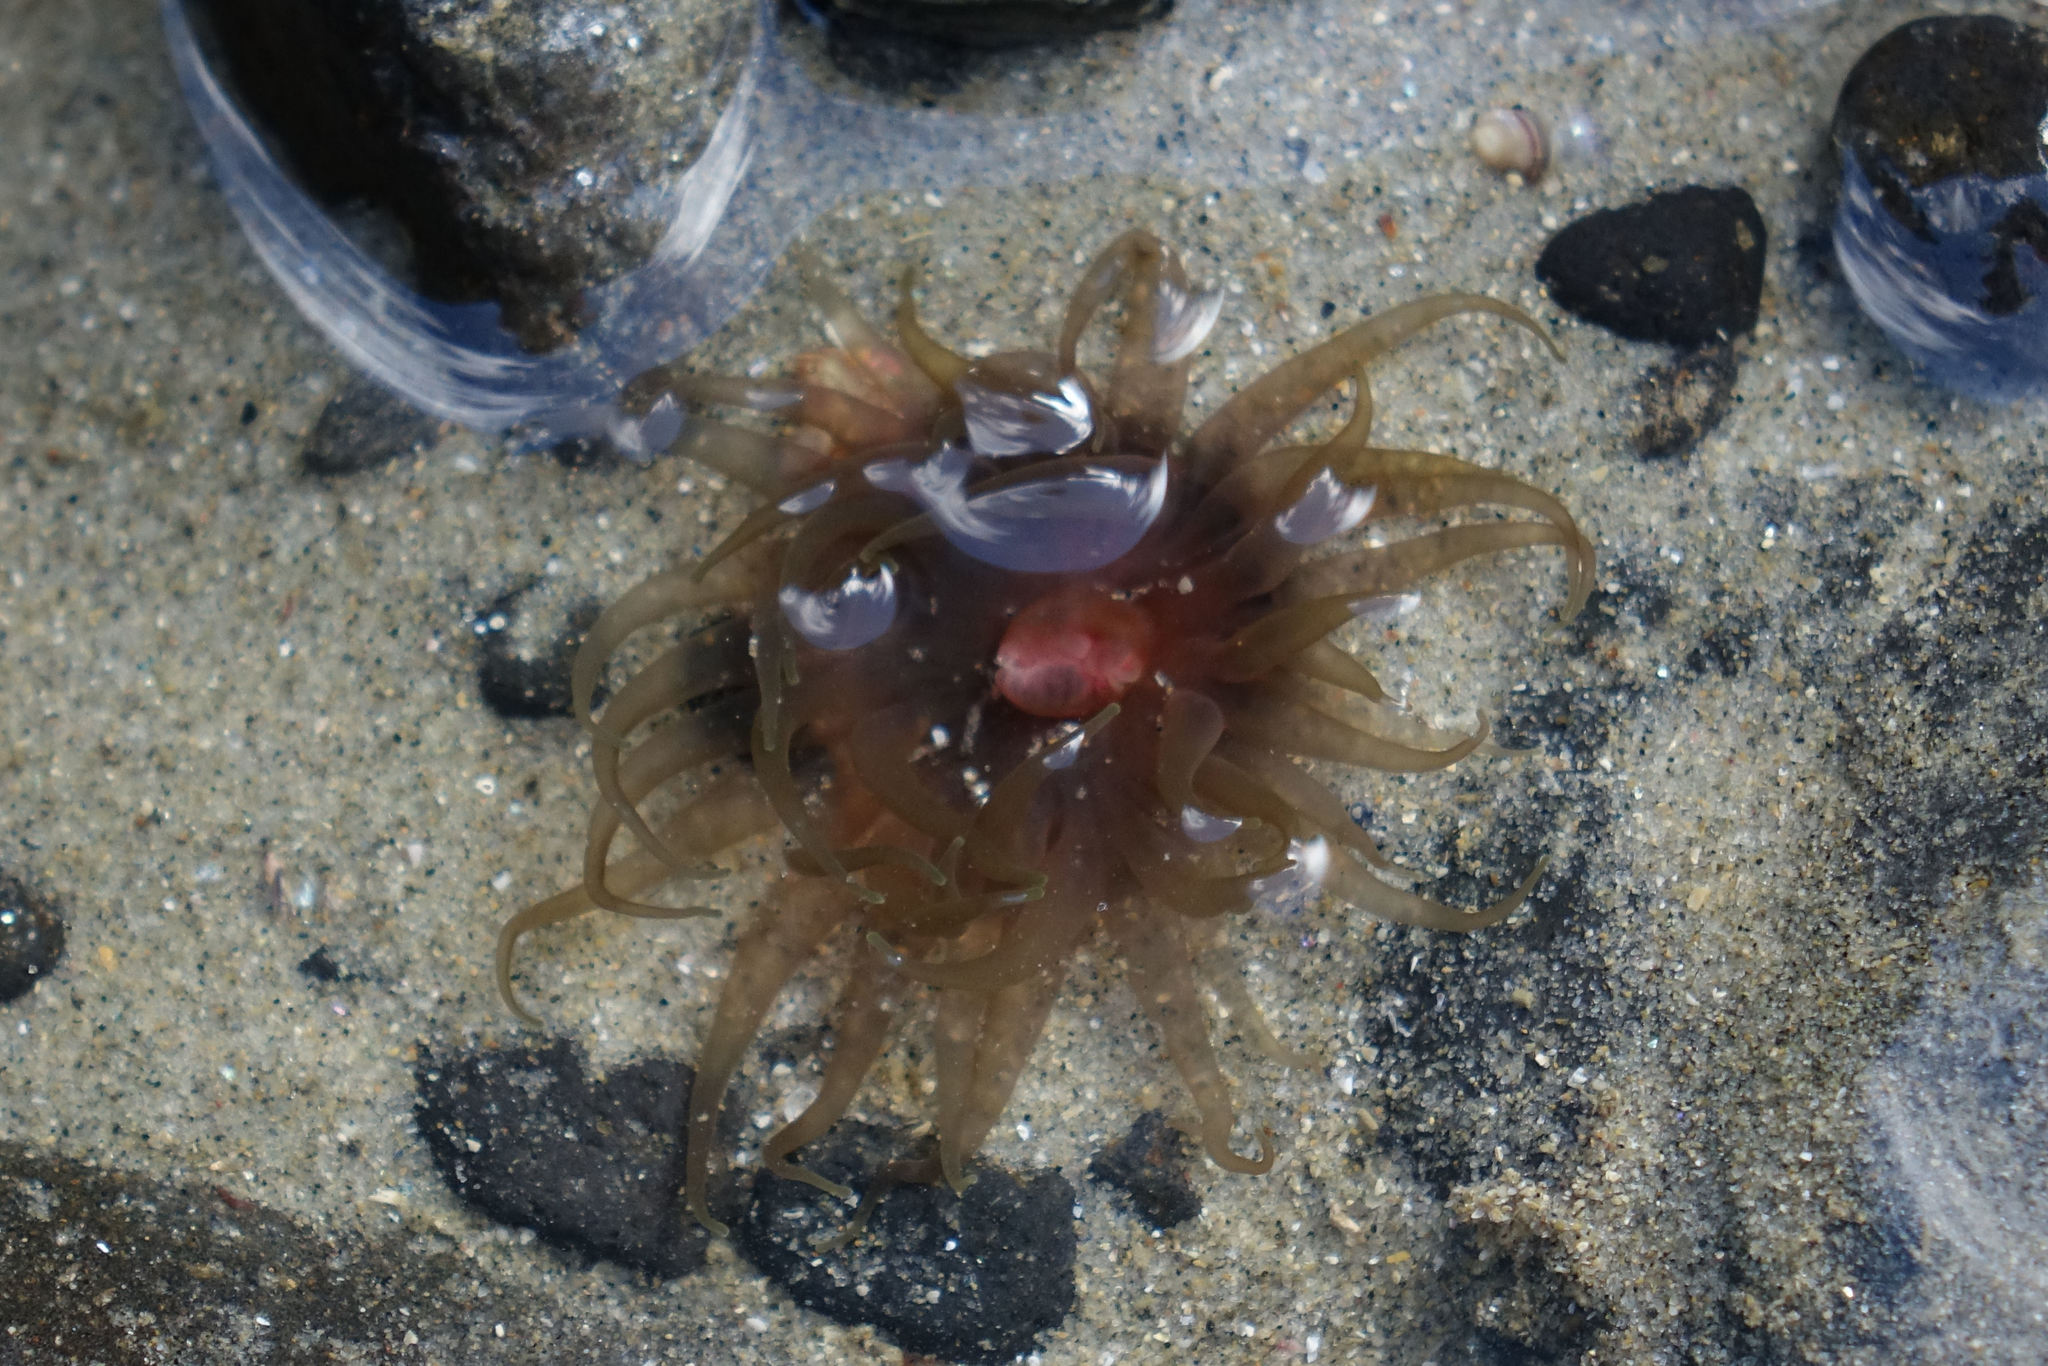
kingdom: Animalia
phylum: Cnidaria
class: Anthozoa
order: Actiniaria
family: Actiniidae
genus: Isactinia
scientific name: Isactinia olivacea
